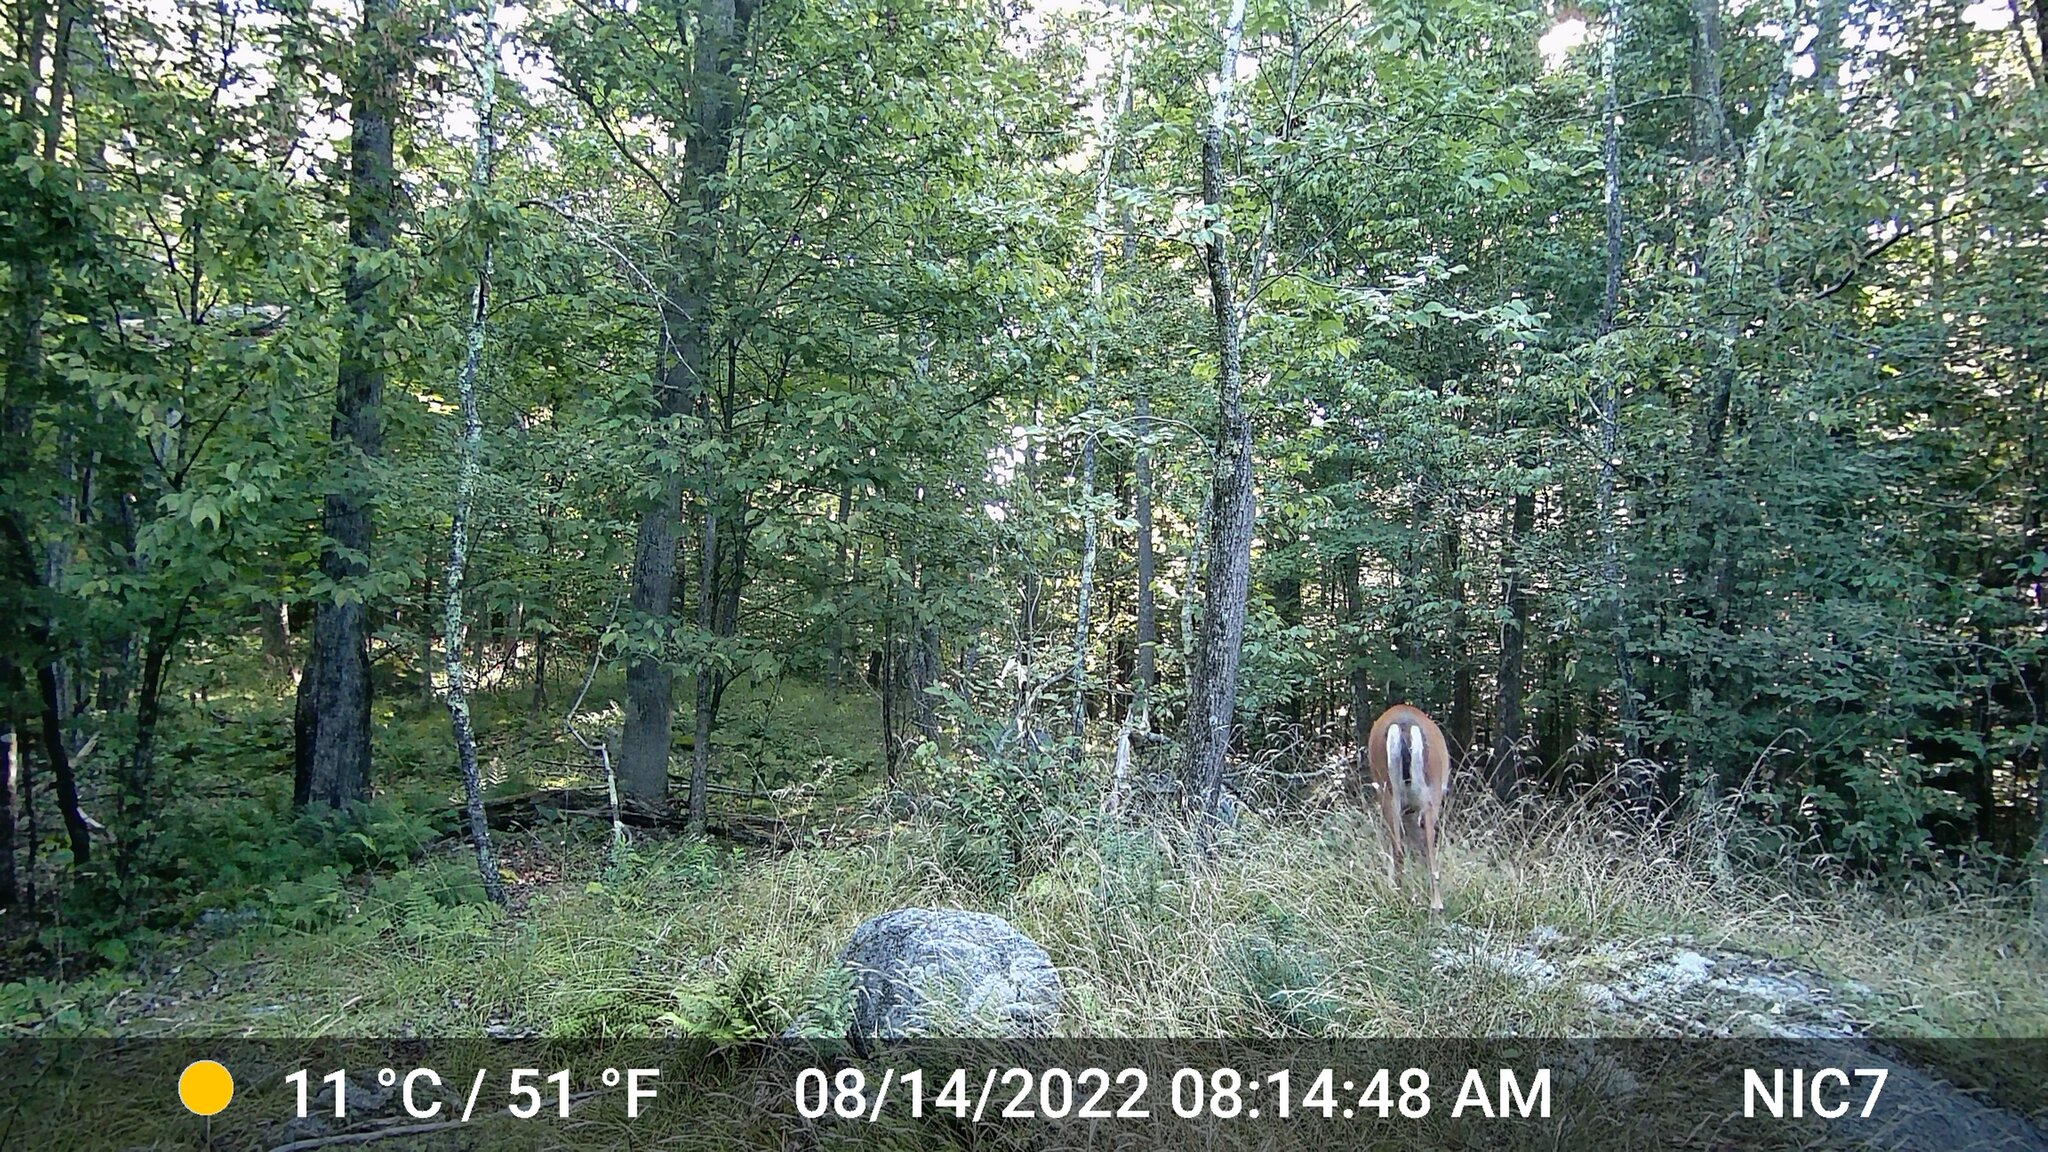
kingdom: Animalia
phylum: Chordata
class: Mammalia
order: Artiodactyla
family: Cervidae
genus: Odocoileus
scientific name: Odocoileus virginianus
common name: White-tailed deer
